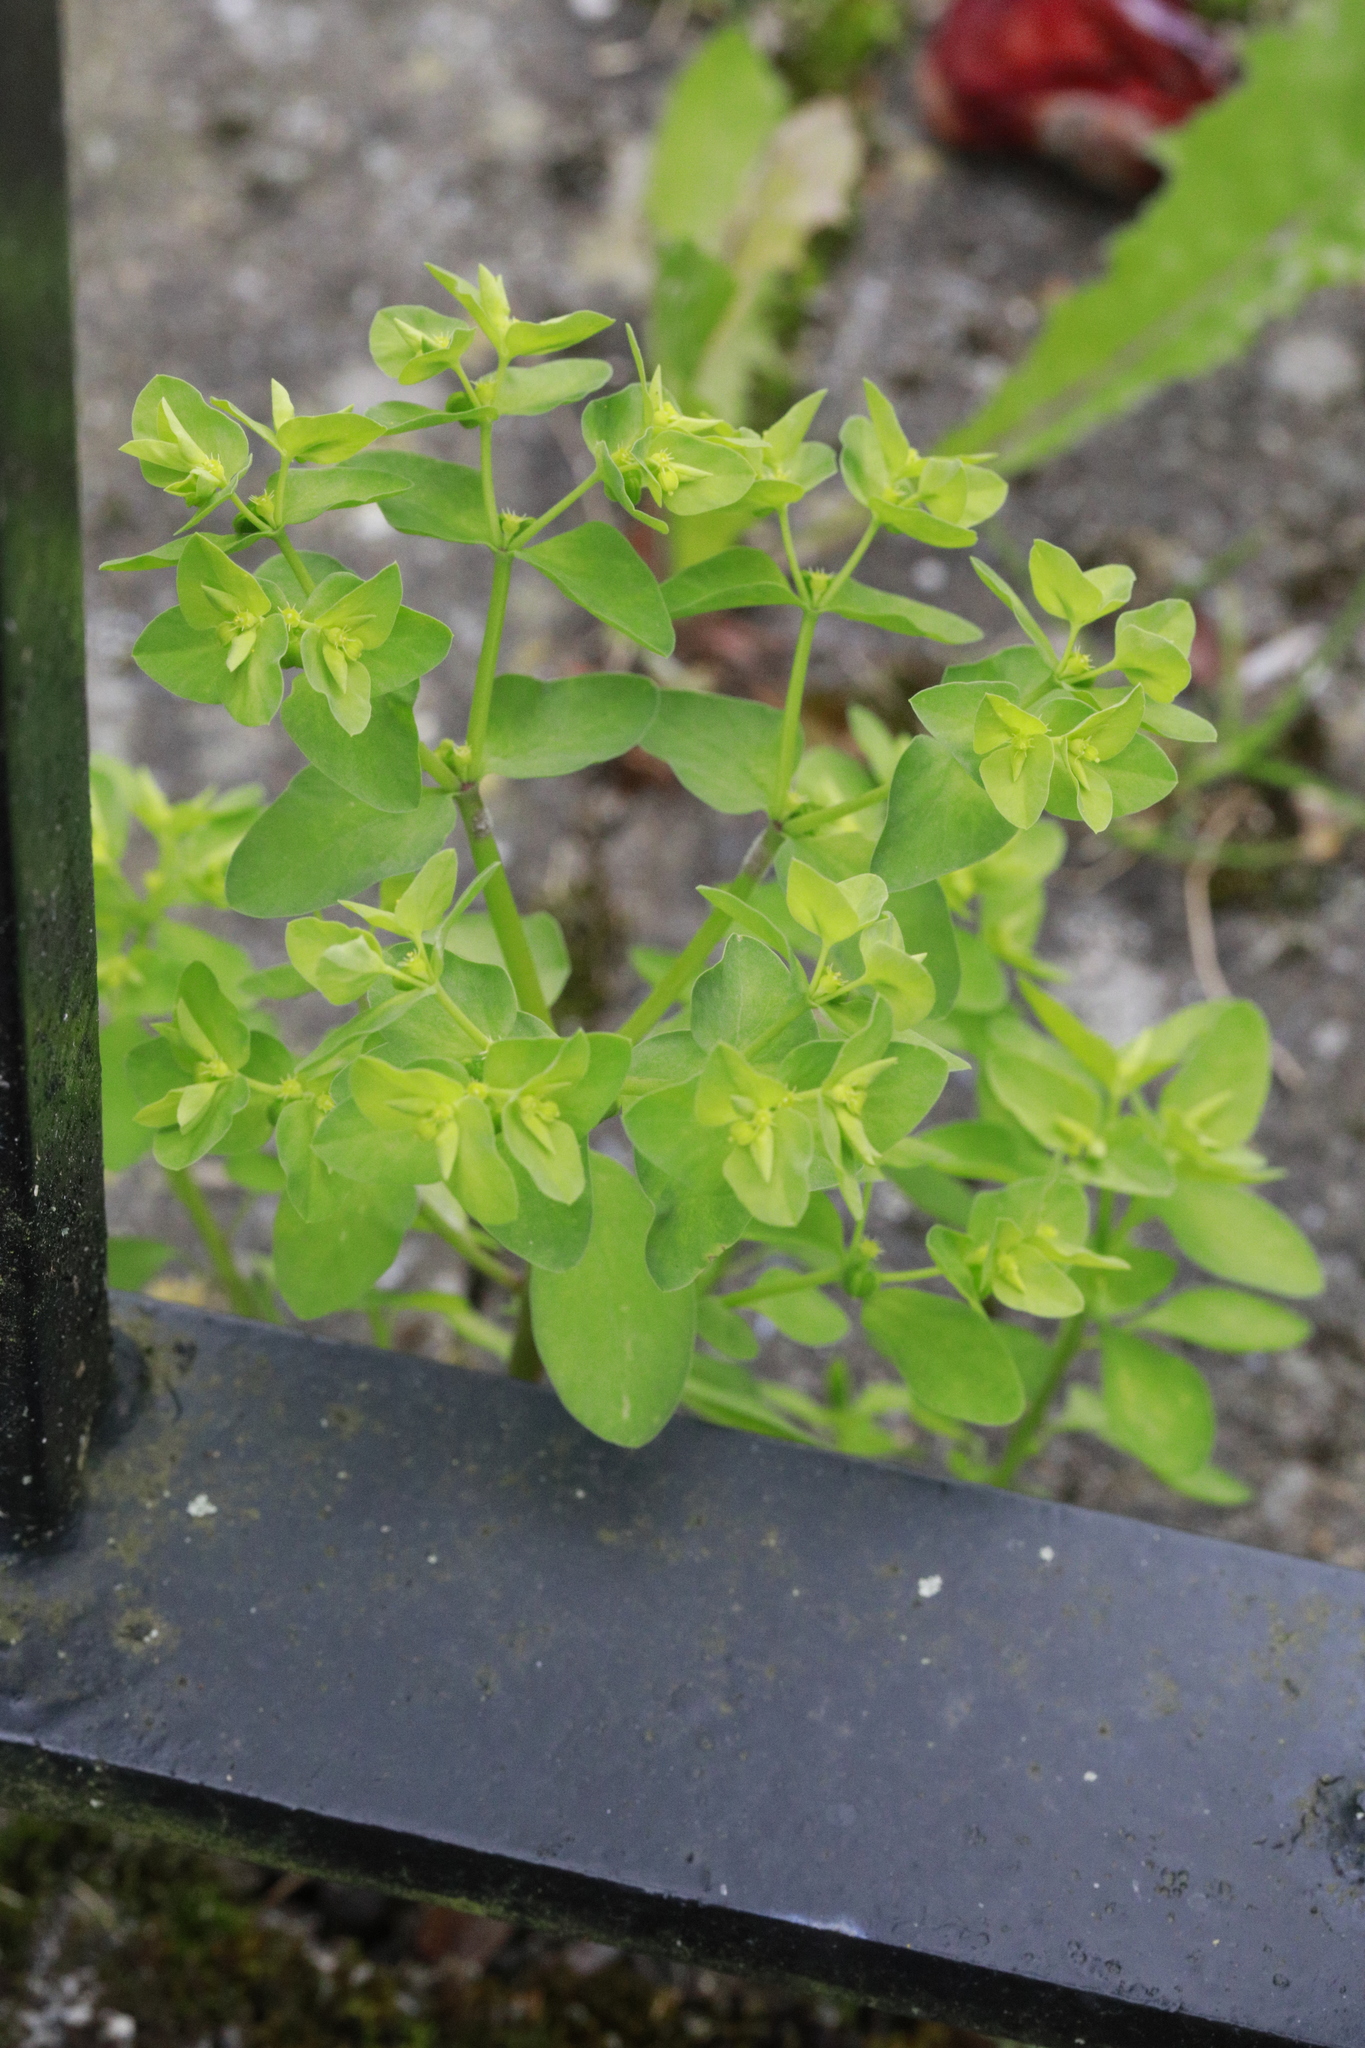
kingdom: Plantae
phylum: Tracheophyta
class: Magnoliopsida
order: Malpighiales
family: Euphorbiaceae
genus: Euphorbia
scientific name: Euphorbia peplus
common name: Petty spurge
